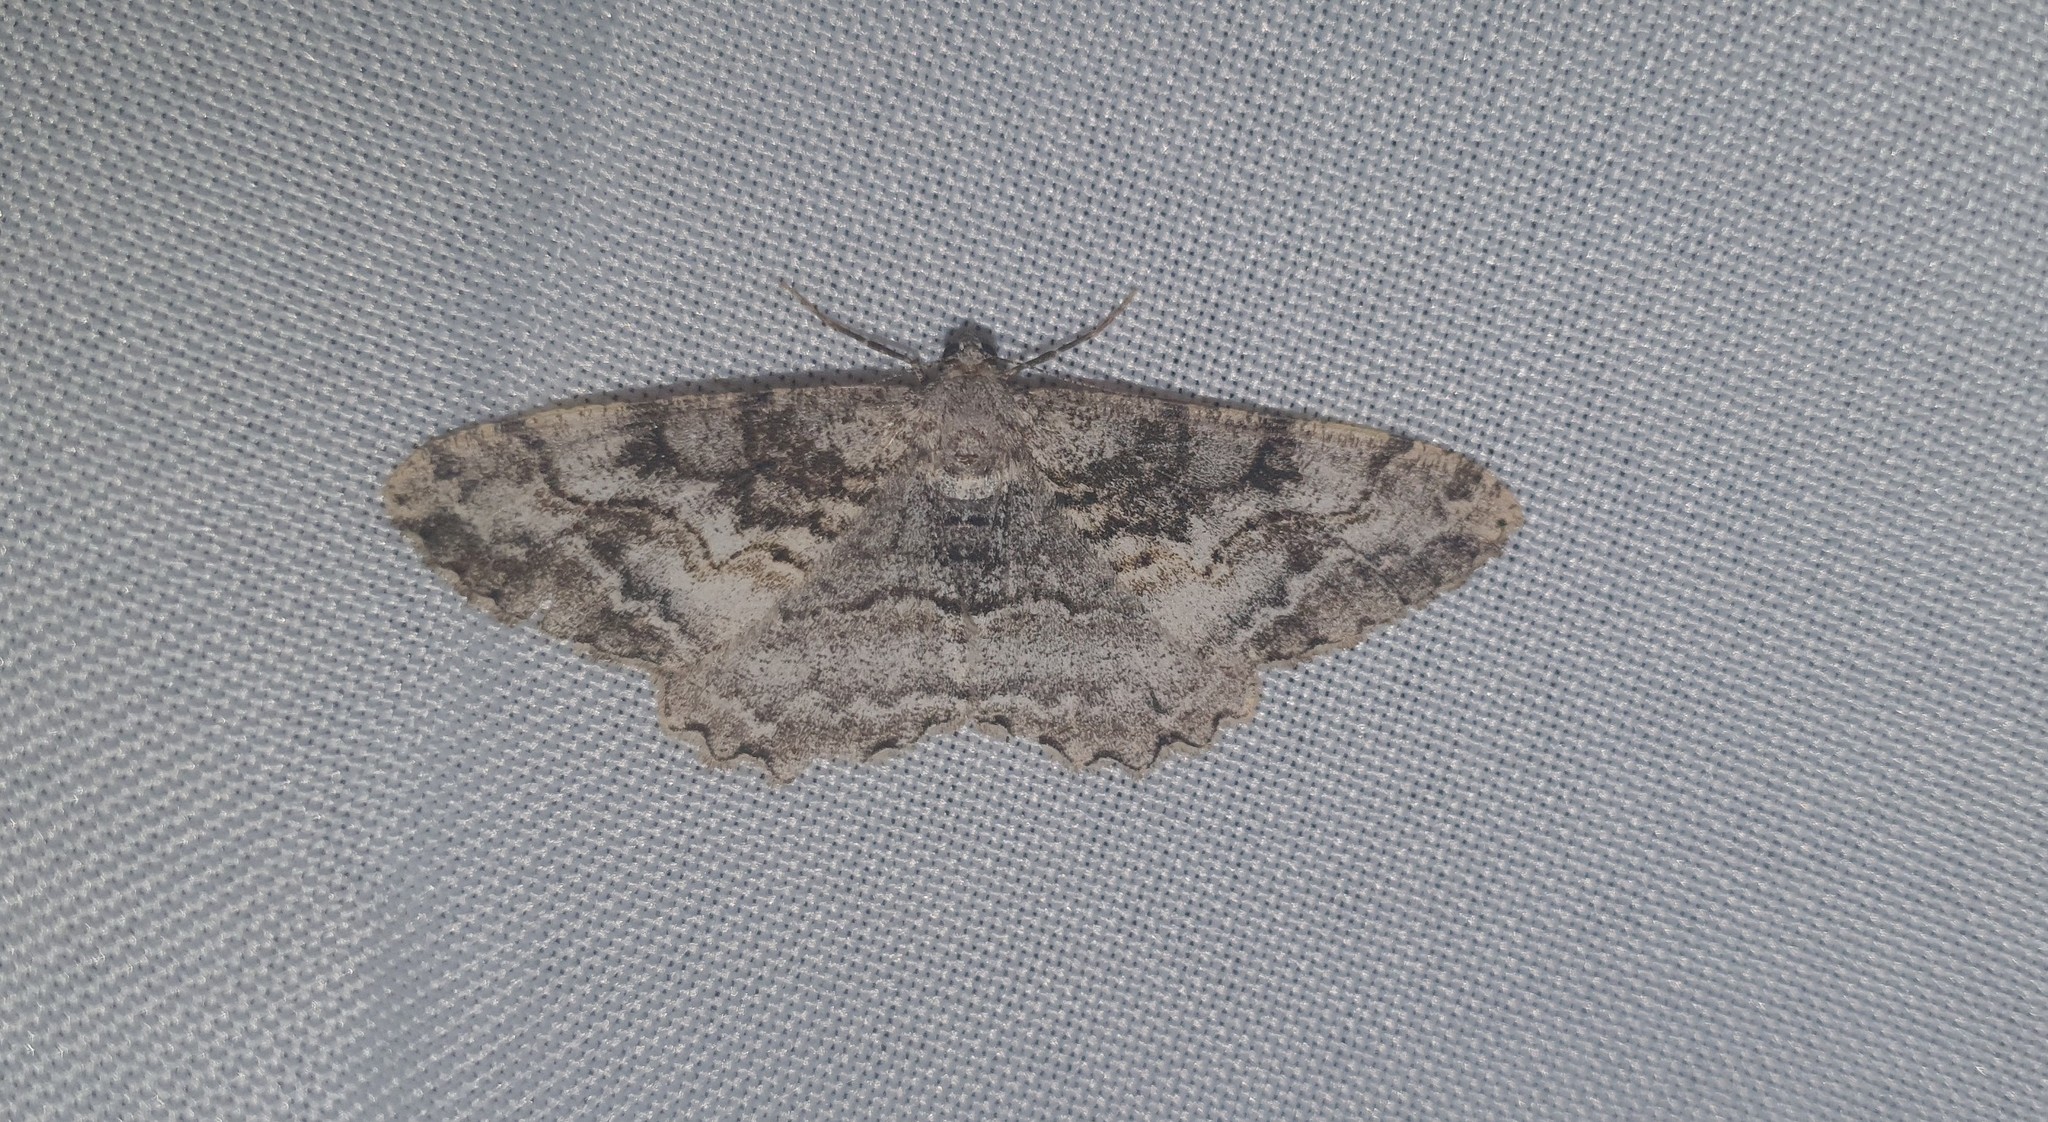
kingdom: Animalia
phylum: Arthropoda
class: Insecta
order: Lepidoptera
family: Geometridae
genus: Alcis
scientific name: Alcis repandata
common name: Mottled beauty
